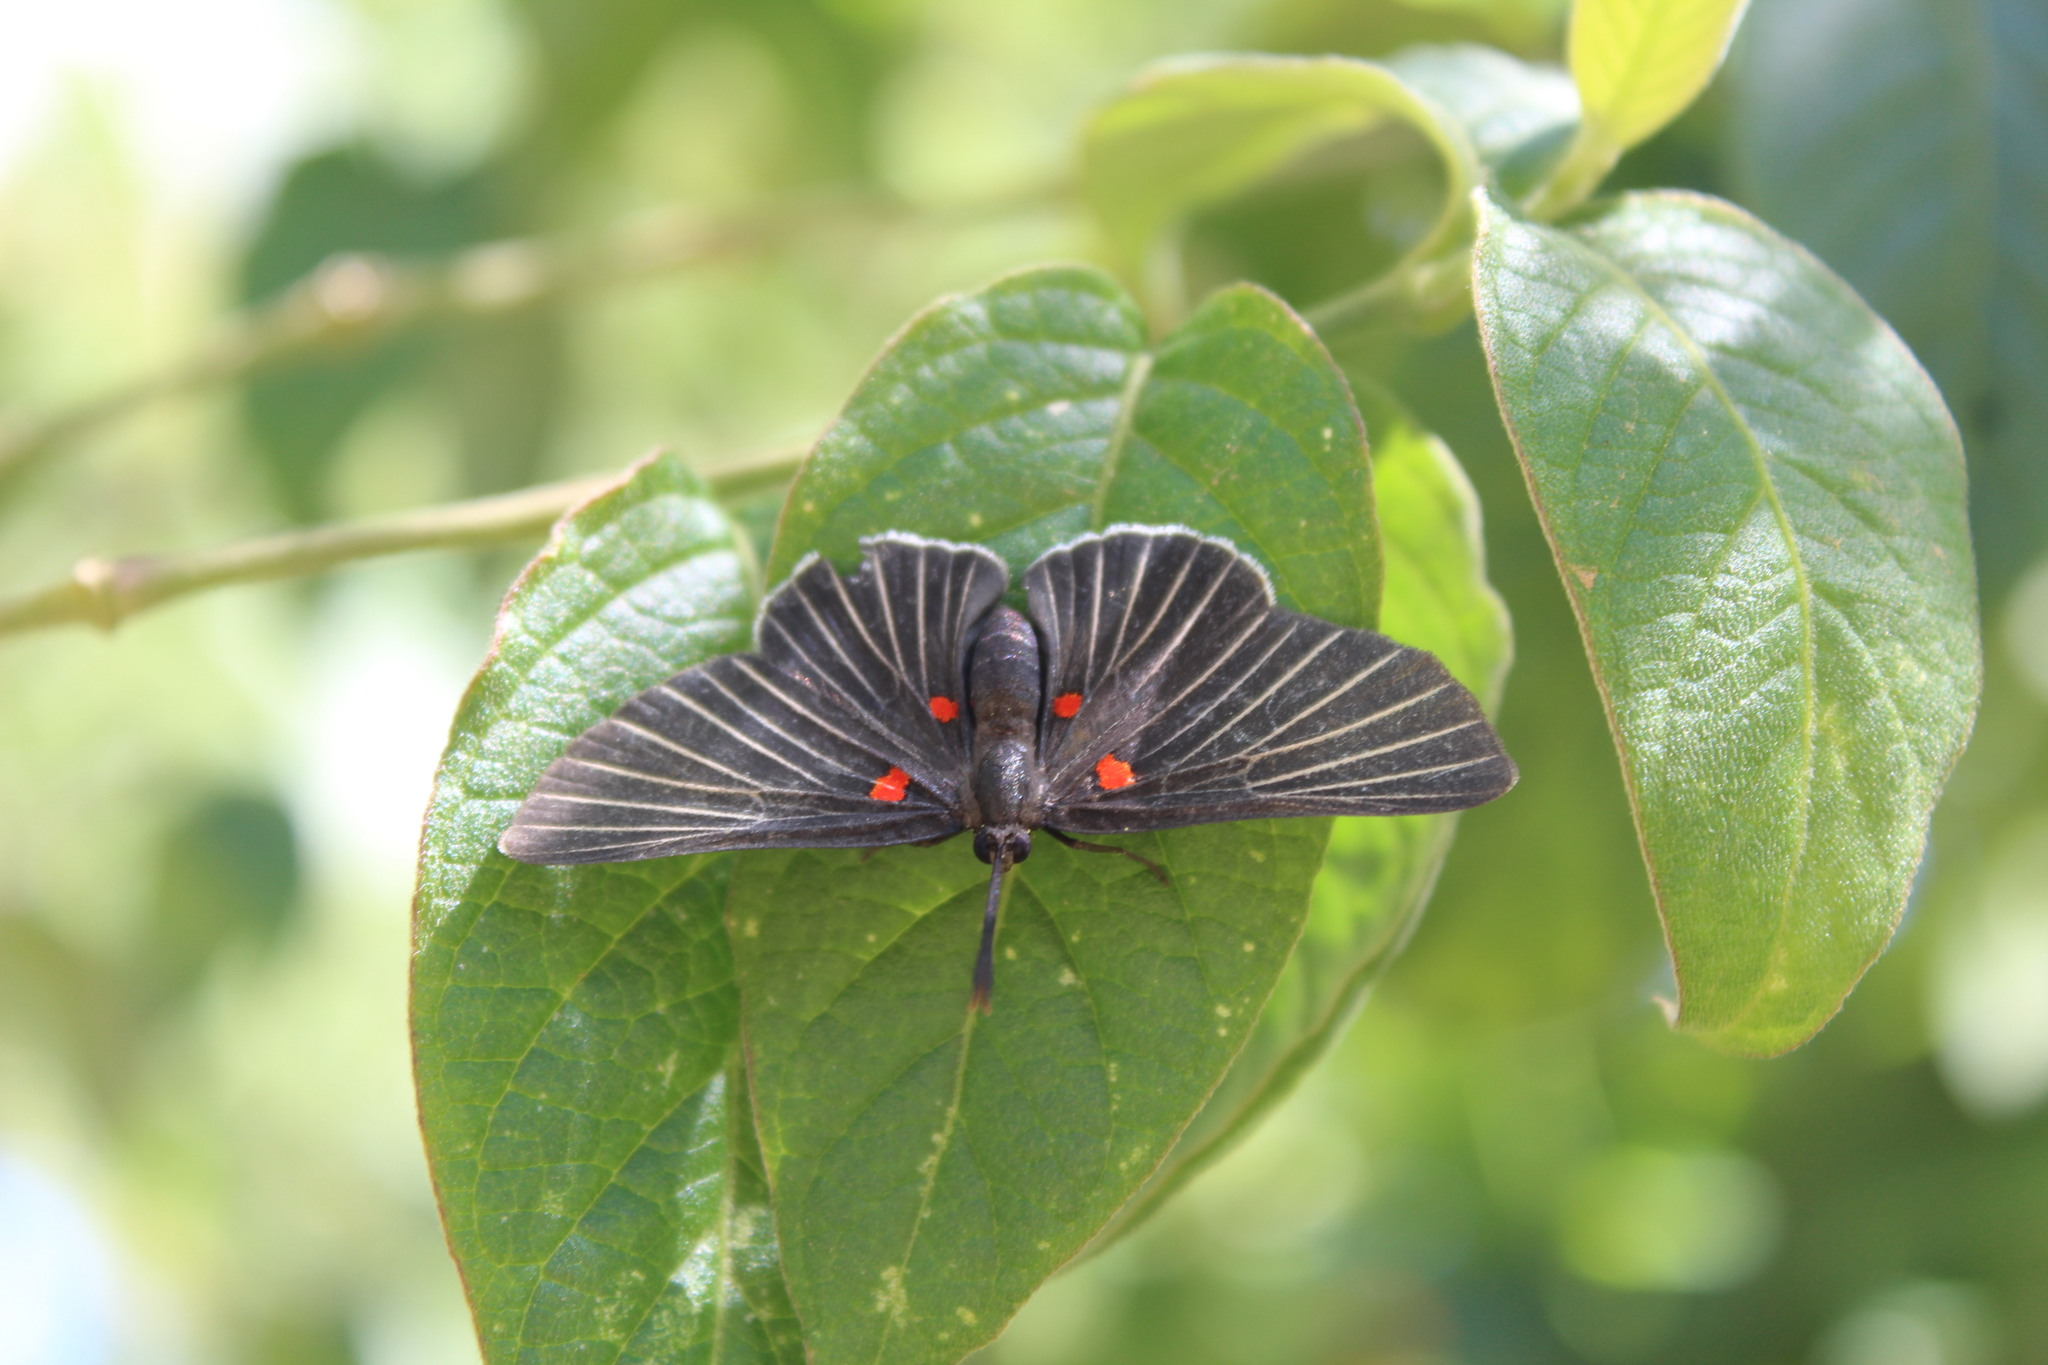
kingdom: Animalia
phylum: Arthropoda
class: Insecta
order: Lepidoptera
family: Lycaenidae
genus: Melanis
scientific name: Melanis
